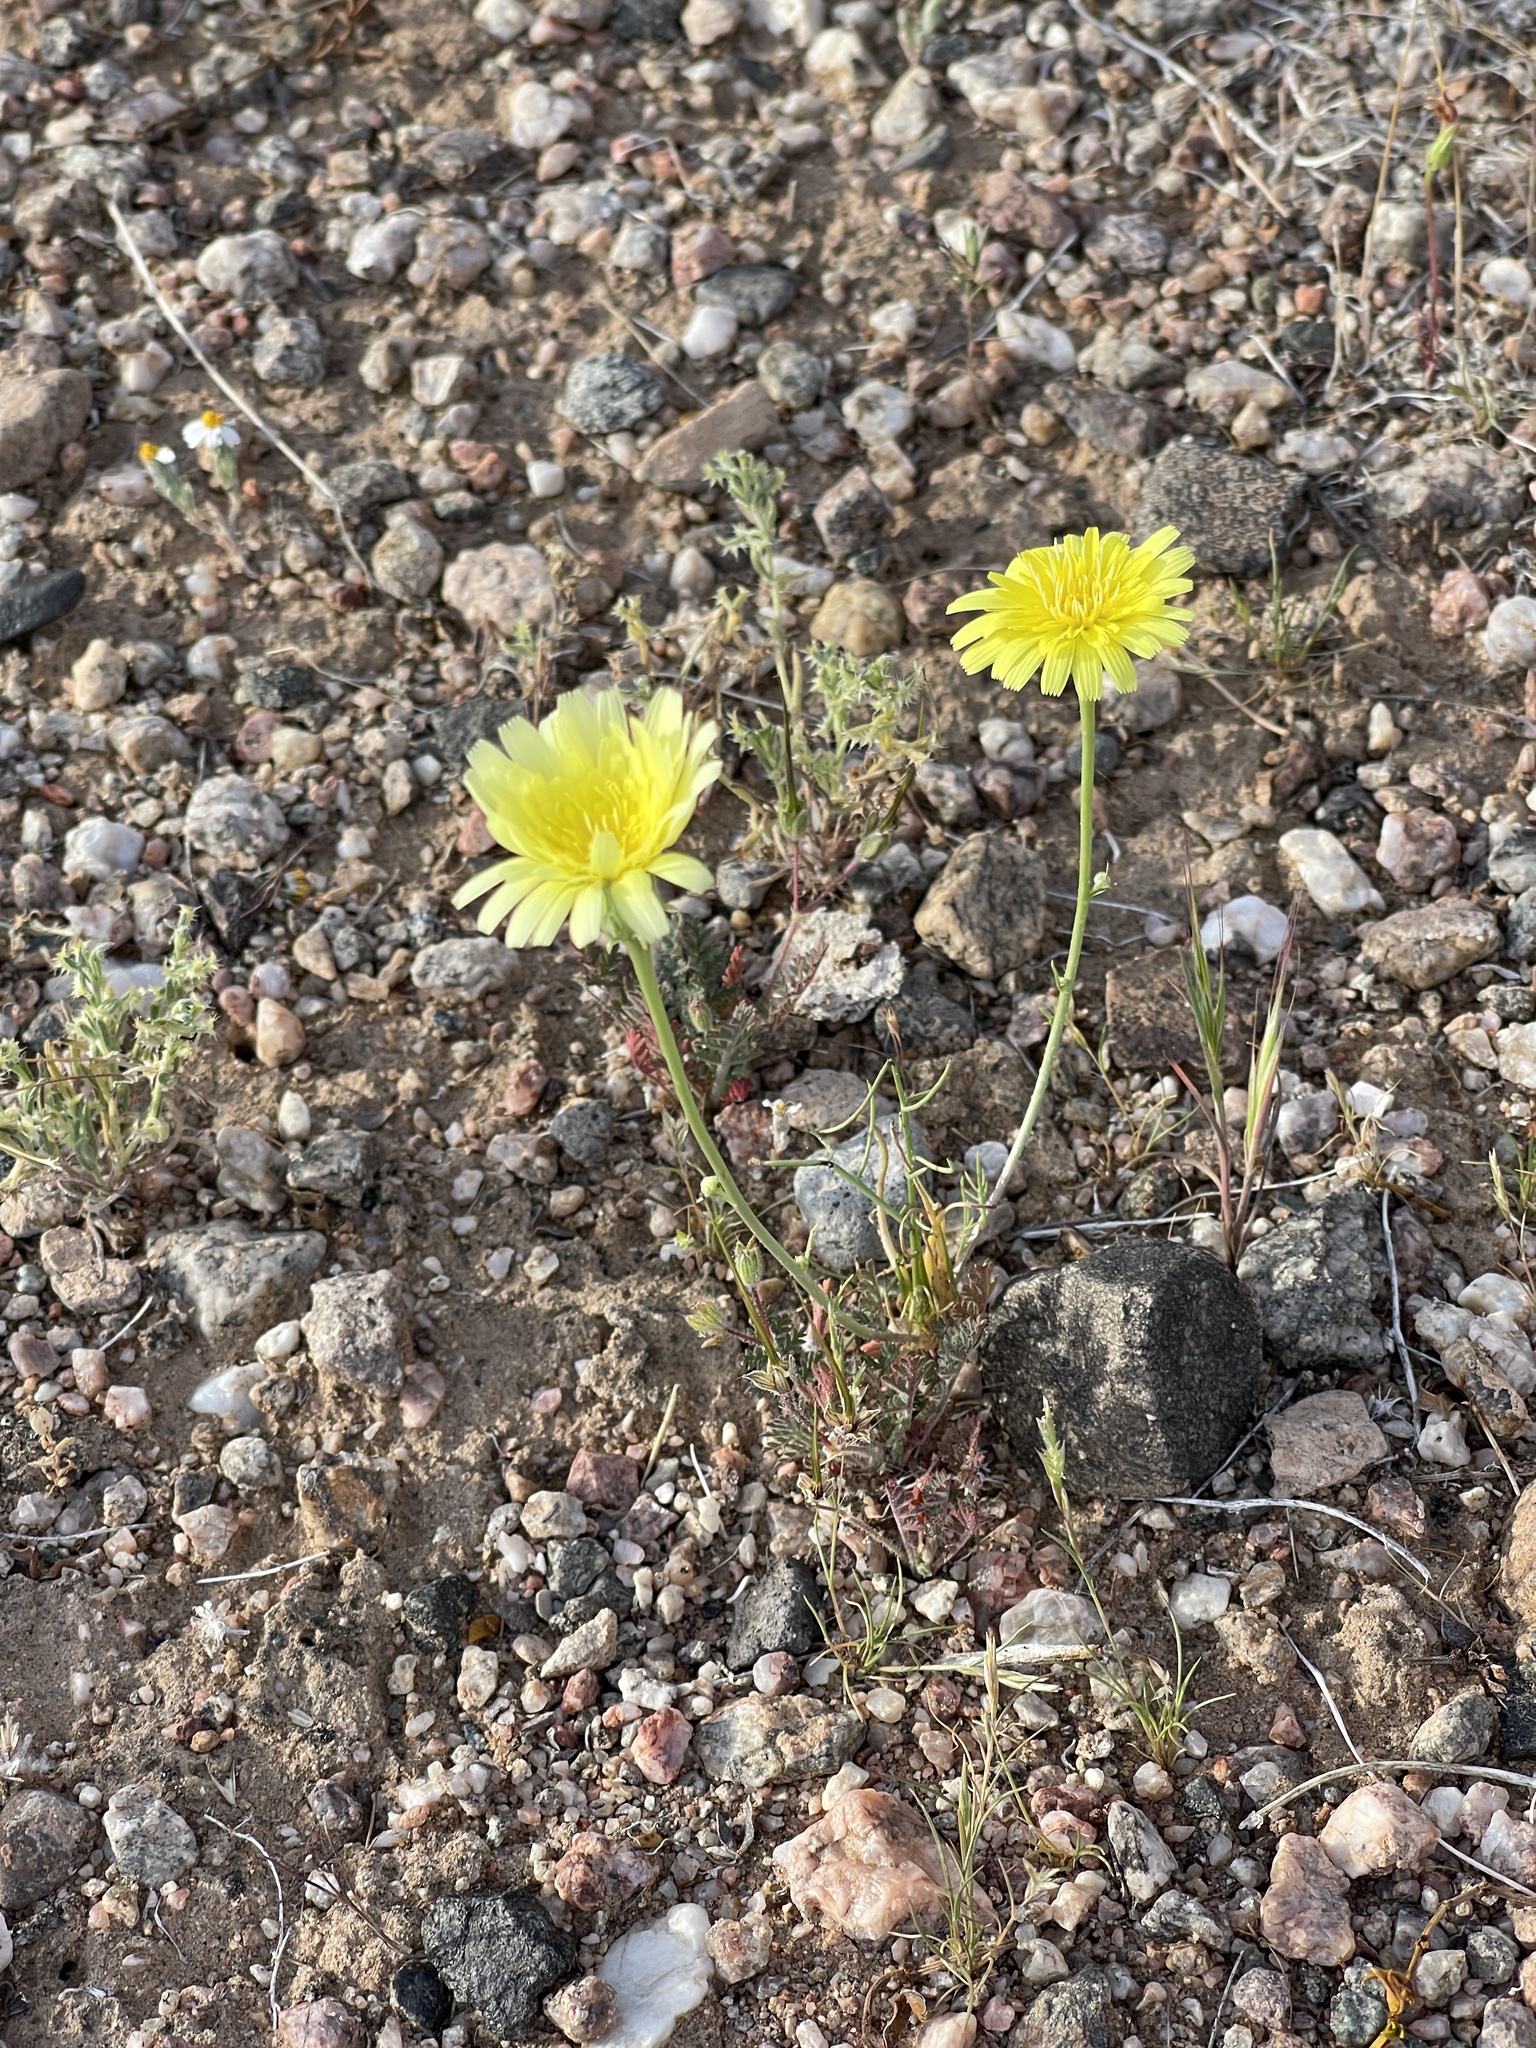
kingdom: Plantae
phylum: Tracheophyta
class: Magnoliopsida
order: Asterales
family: Asteraceae
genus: Malacothrix
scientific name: Malacothrix glabrata
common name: Smooth desert-dandelion
